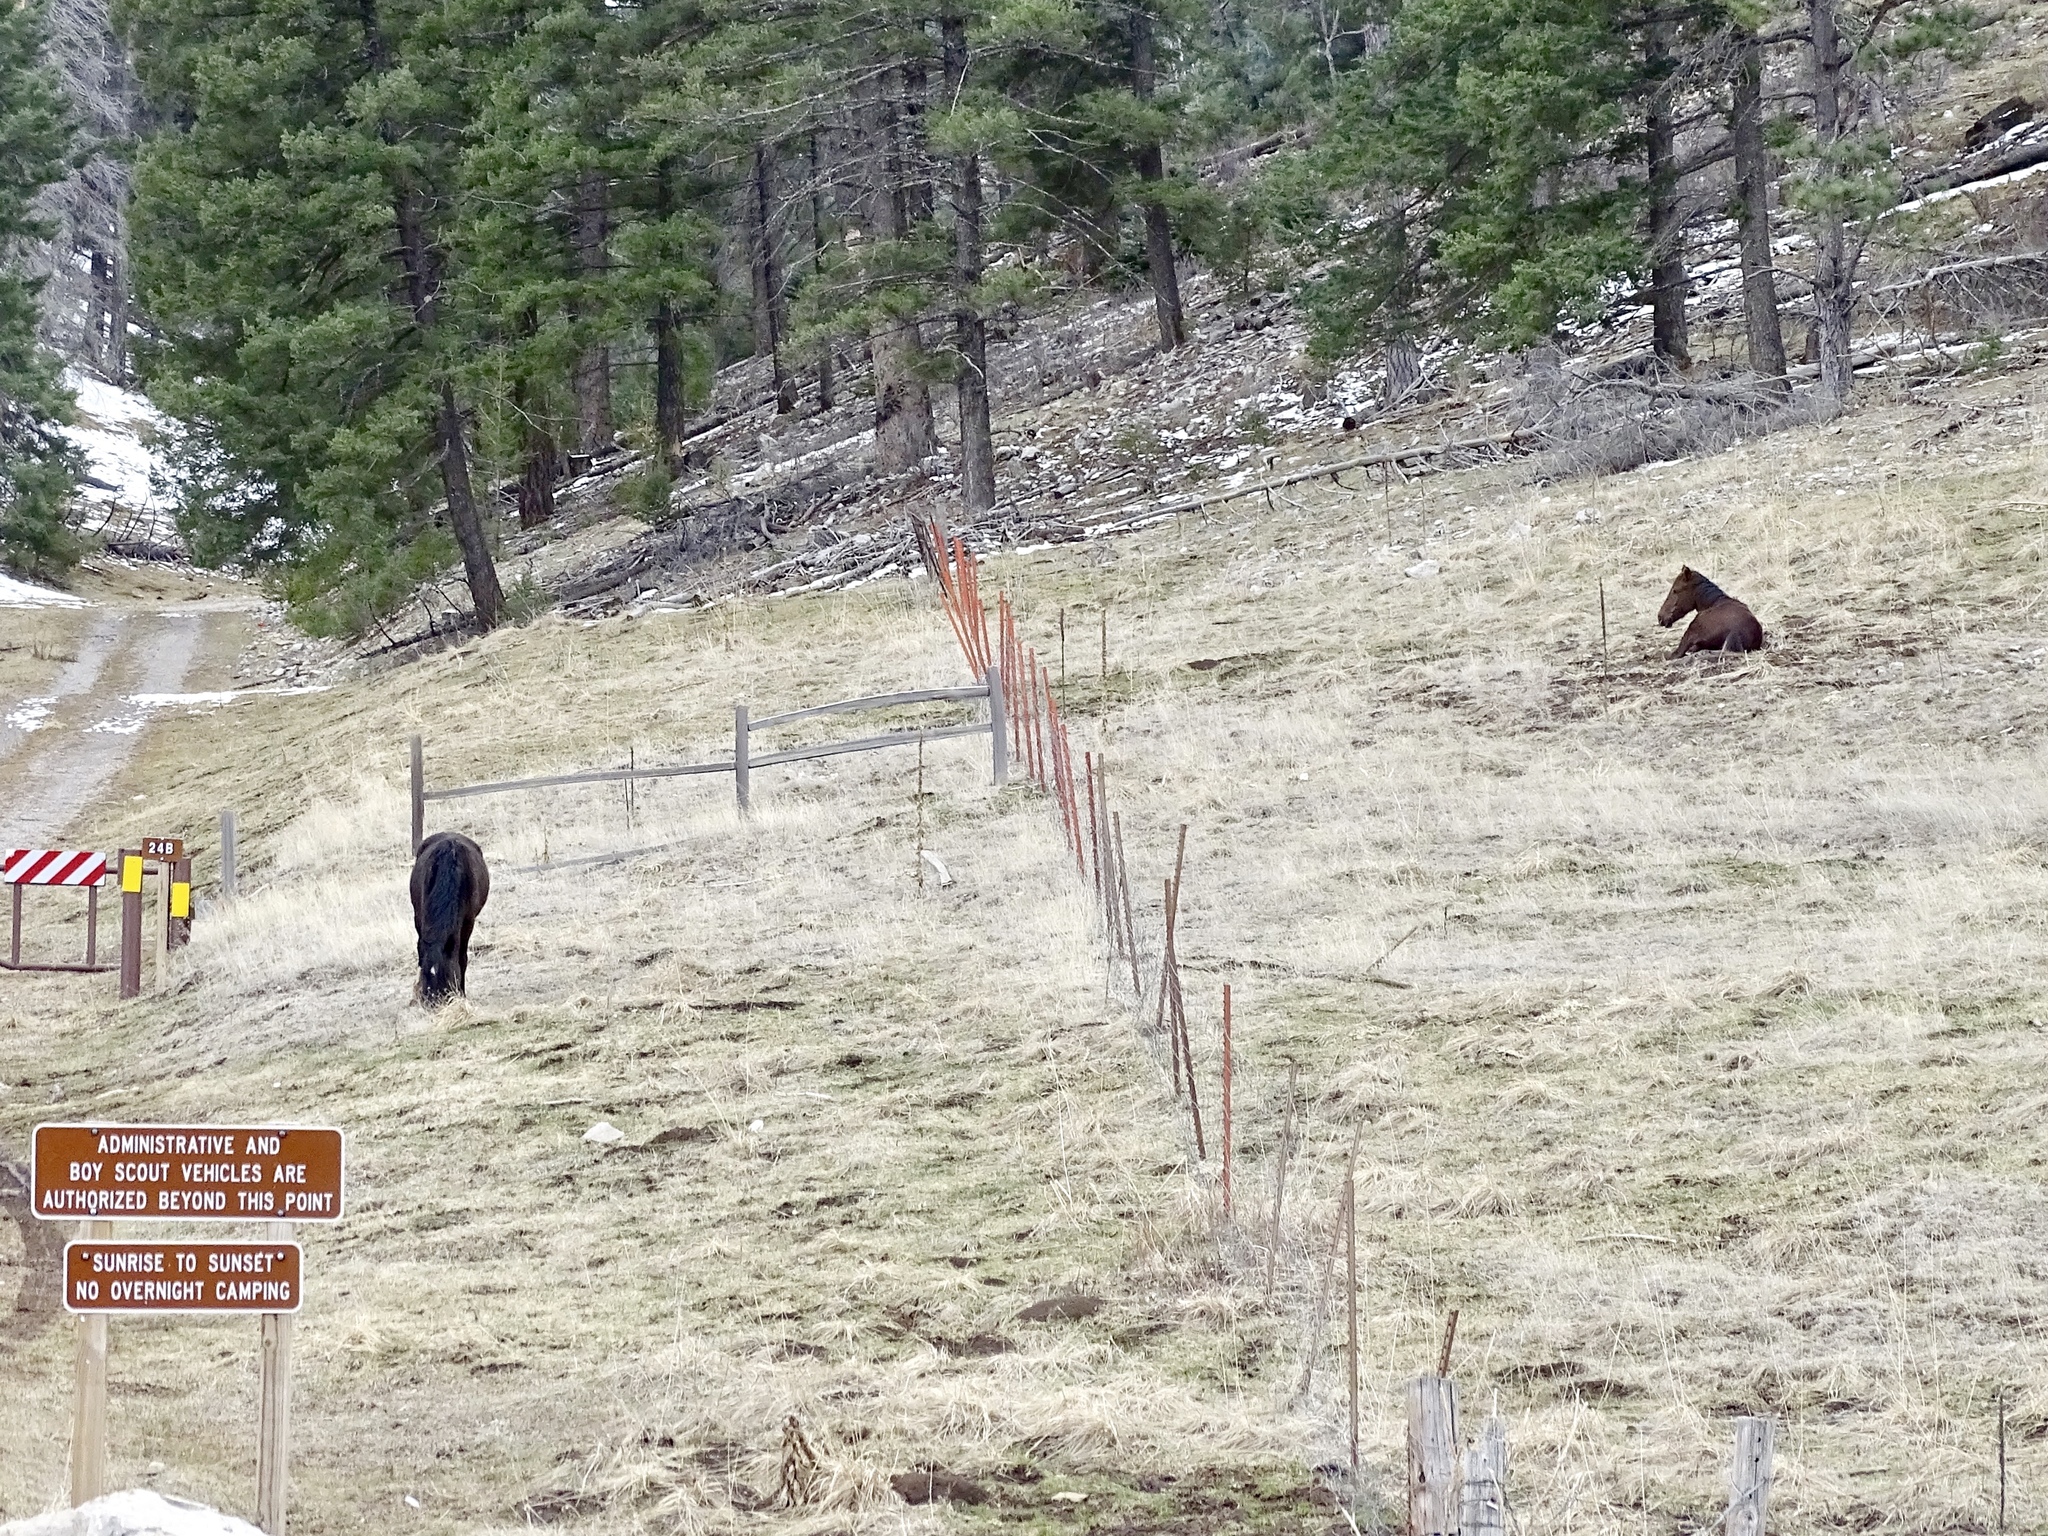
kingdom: Animalia
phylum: Chordata
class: Mammalia
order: Perissodactyla
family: Equidae
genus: Equus
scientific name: Equus caballus
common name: Horse
